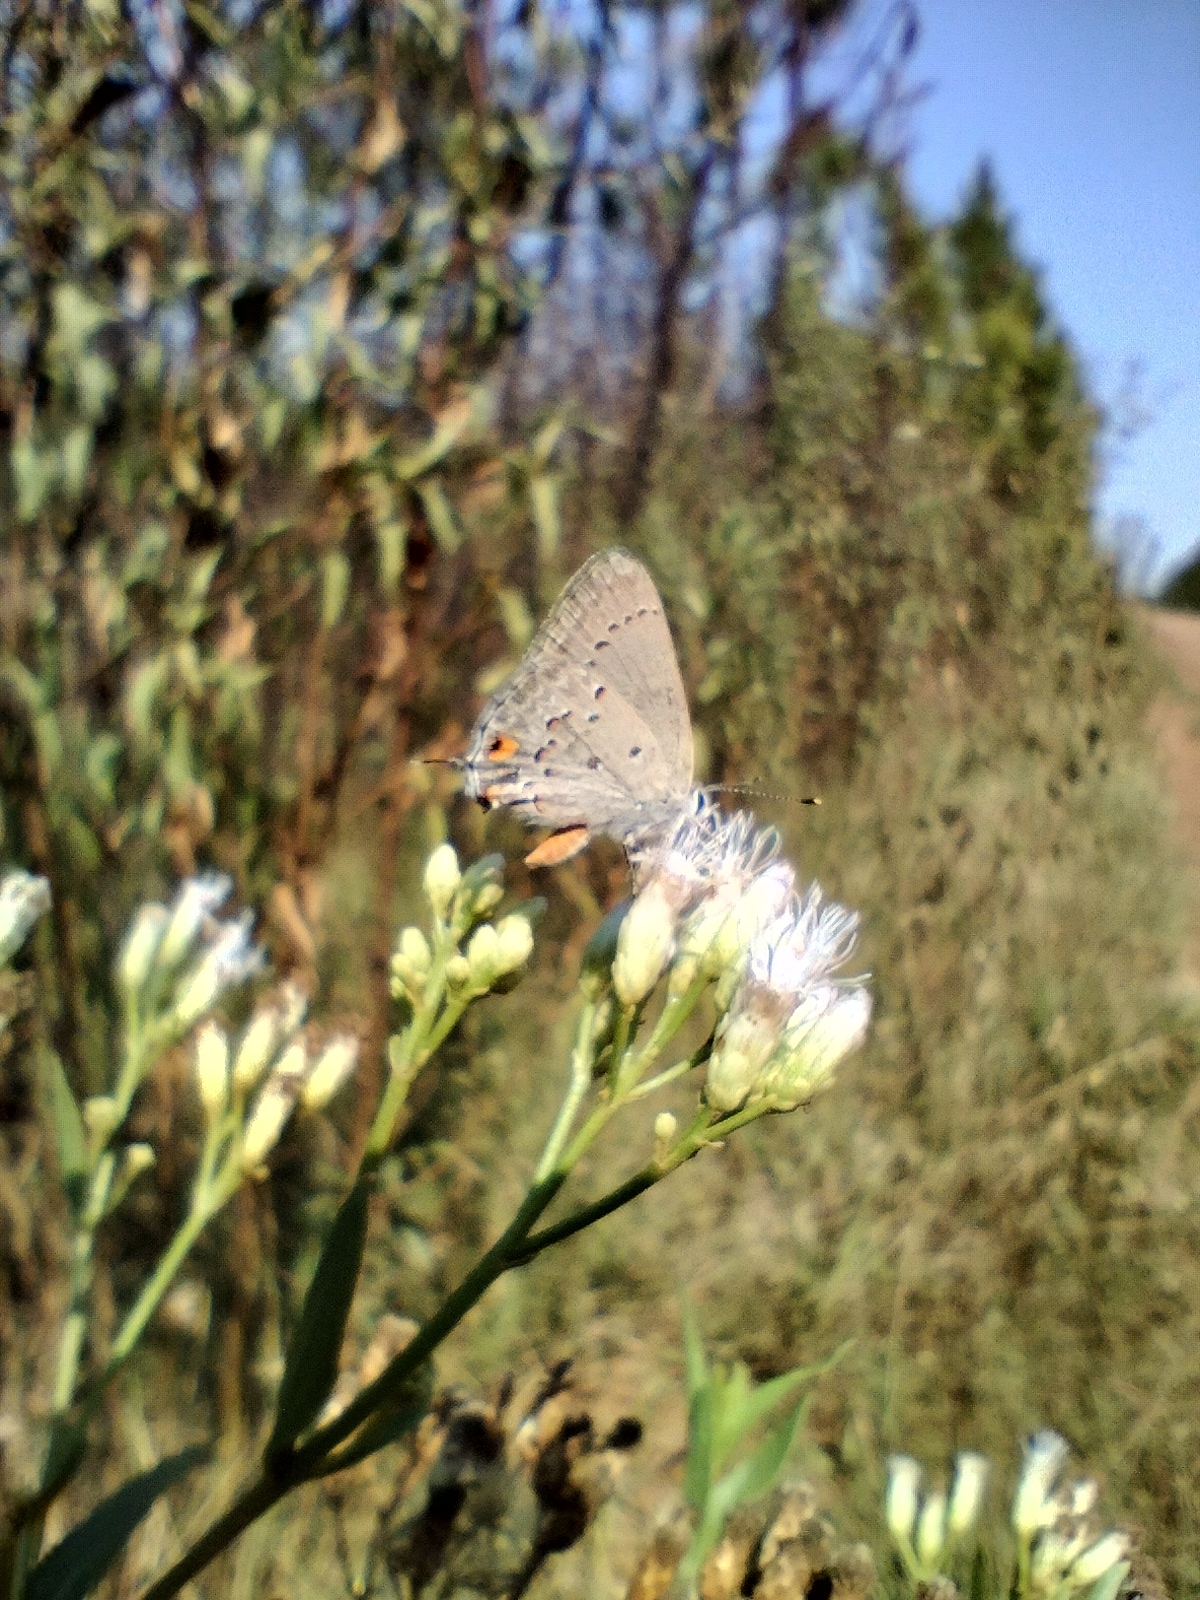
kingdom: Animalia
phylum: Arthropoda
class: Insecta
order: Lepidoptera
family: Lycaenidae
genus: Strymon
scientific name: Strymon eurytulus
